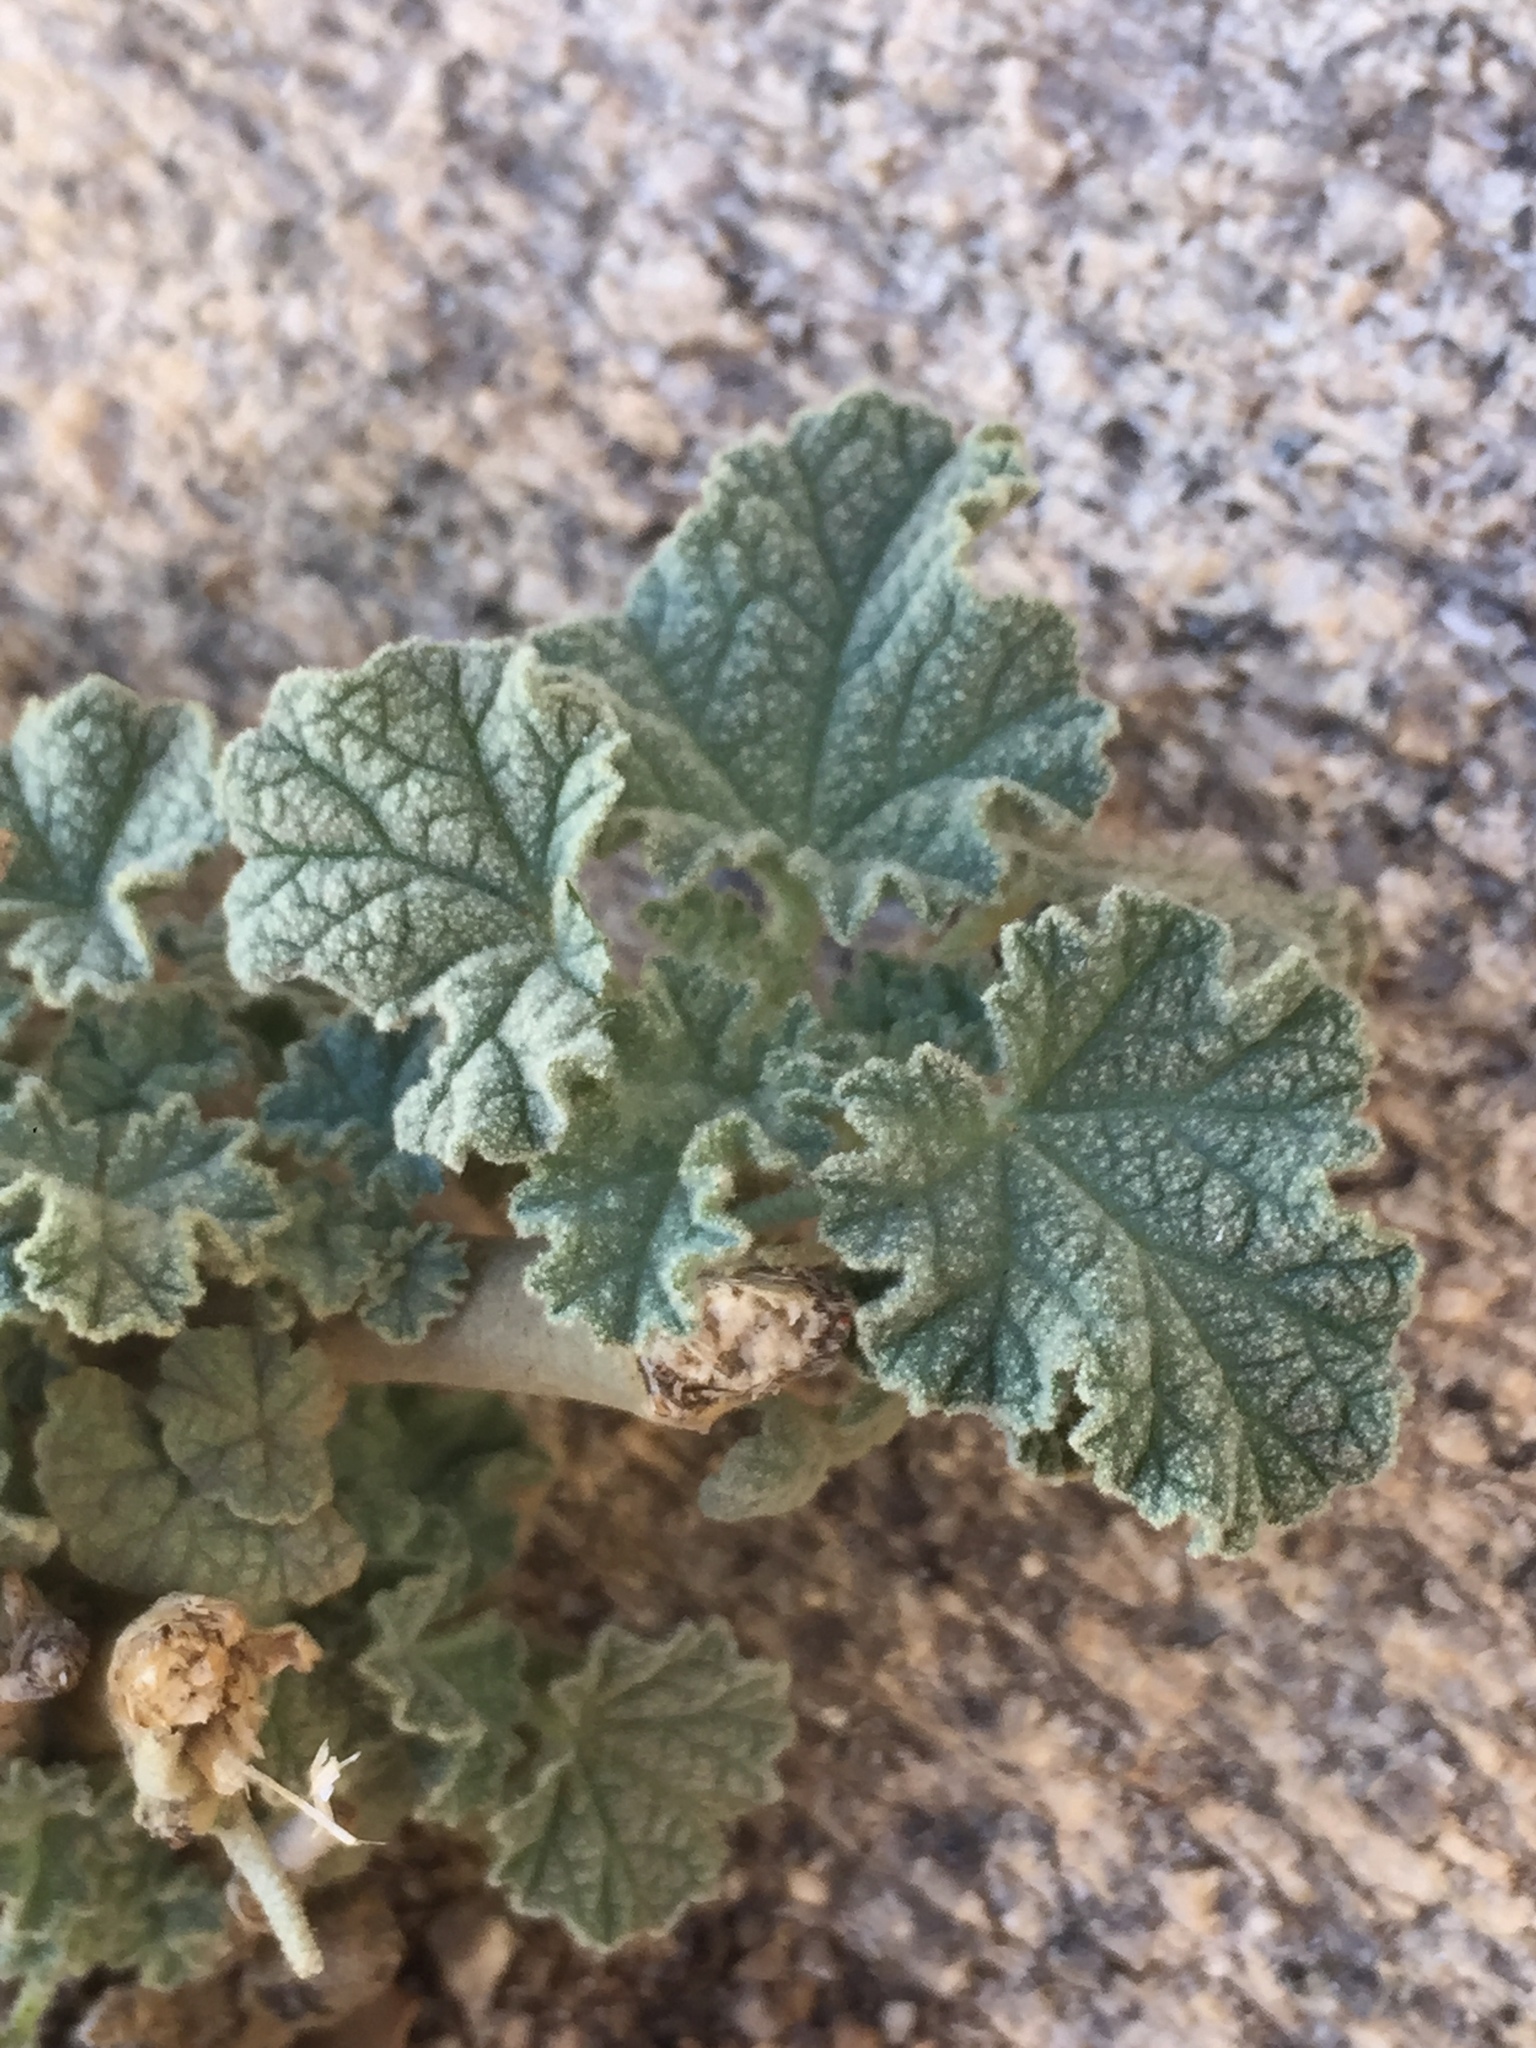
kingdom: Plantae
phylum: Tracheophyta
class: Magnoliopsida
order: Malvales
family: Malvaceae
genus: Sphaeralcea
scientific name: Sphaeralcea ambigua
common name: Apricot globe-mallow
